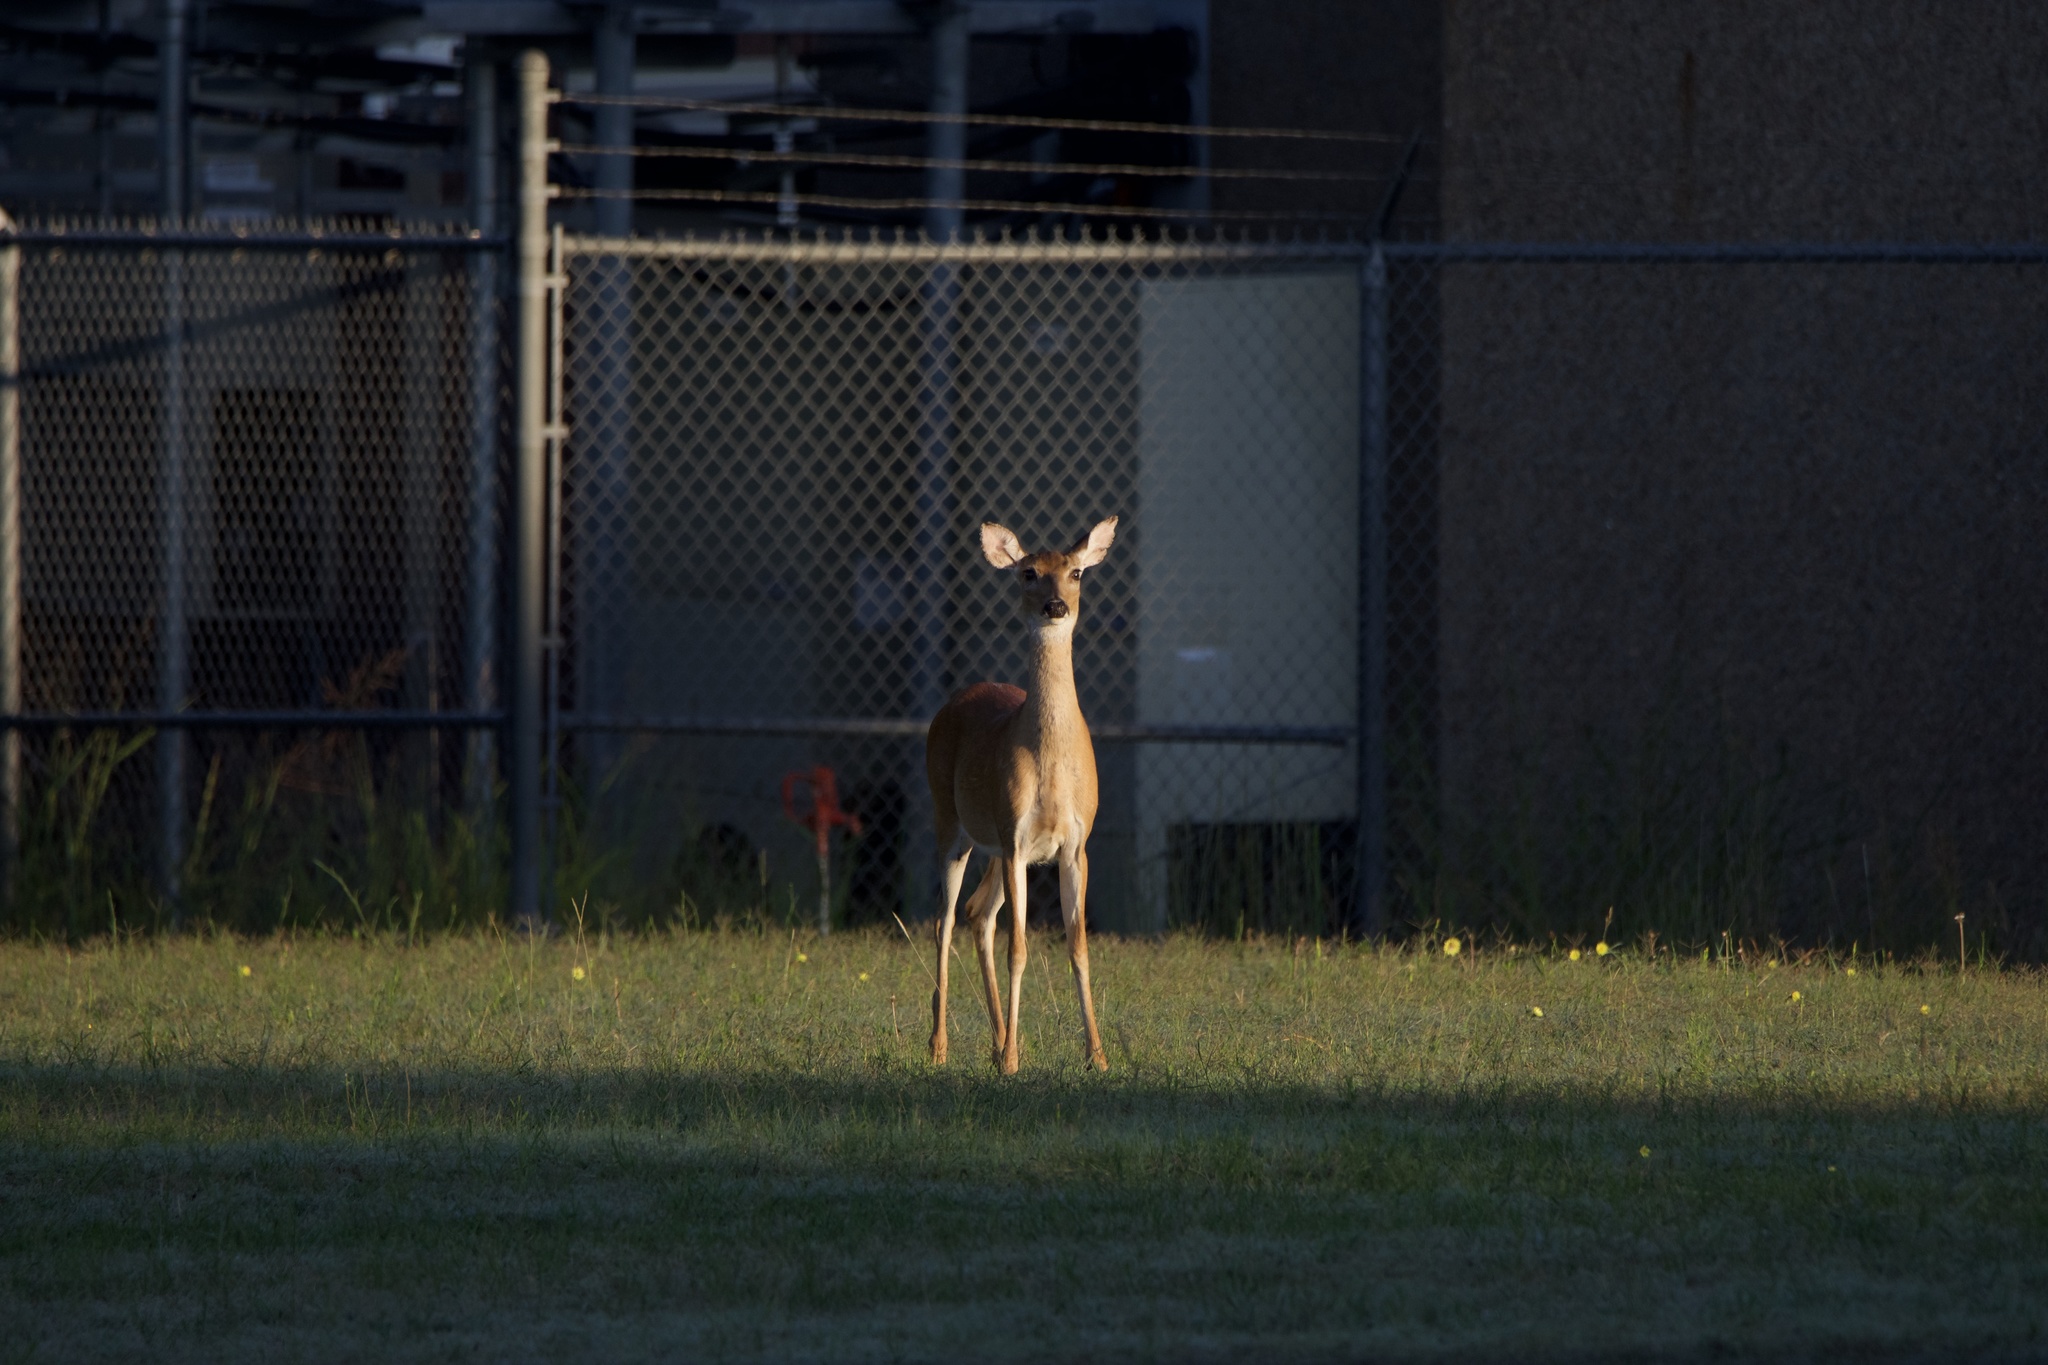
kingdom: Animalia
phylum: Chordata
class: Mammalia
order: Artiodactyla
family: Cervidae
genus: Odocoileus
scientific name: Odocoileus virginianus
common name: White-tailed deer
